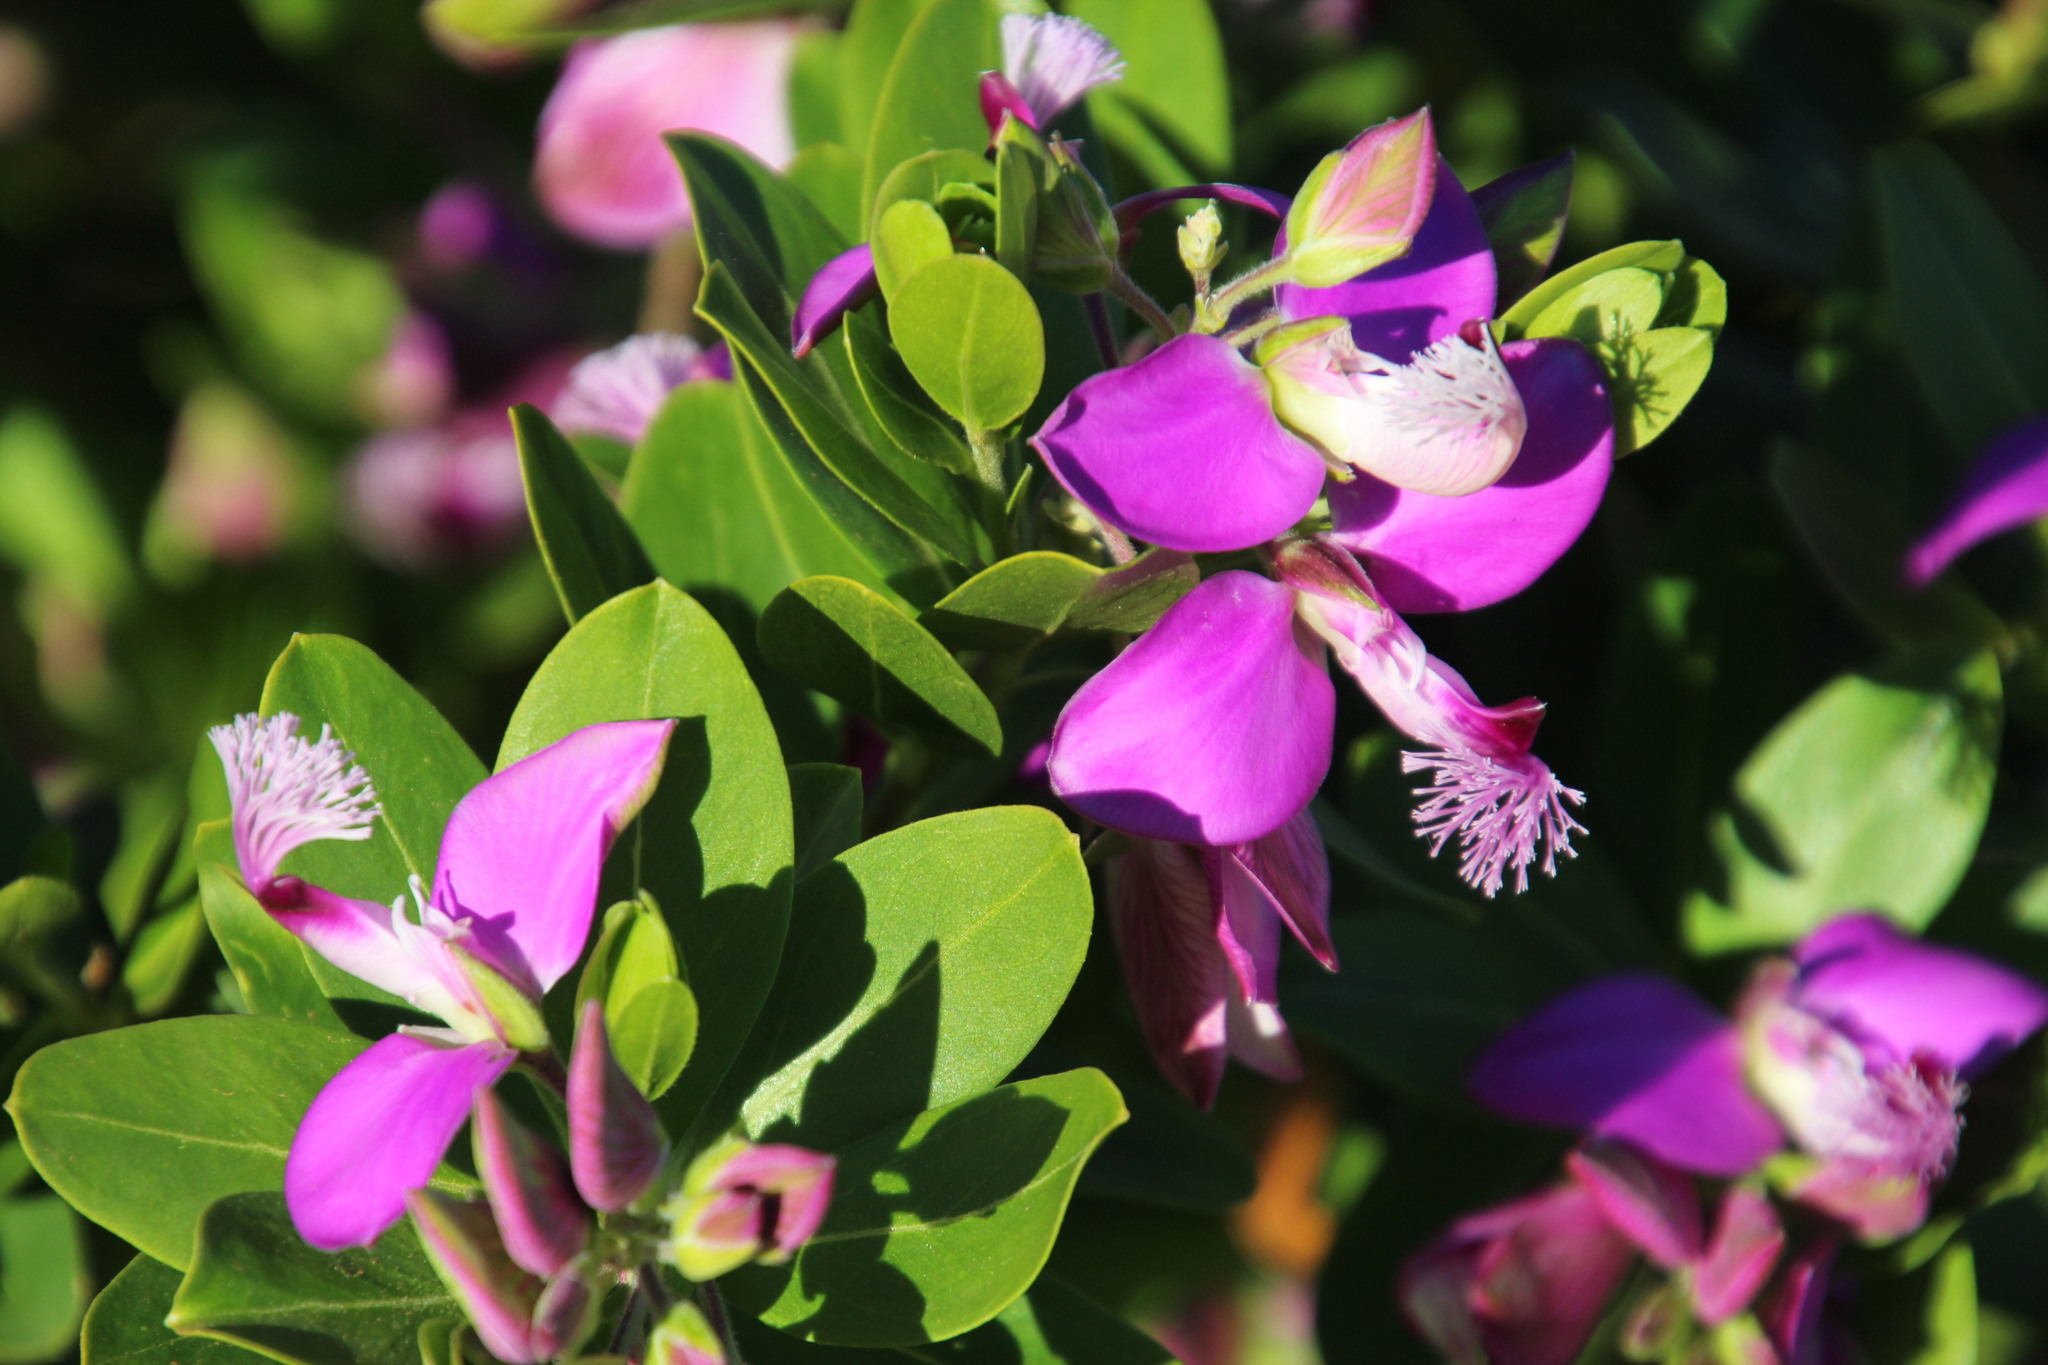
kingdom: Plantae
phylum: Tracheophyta
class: Magnoliopsida
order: Fabales
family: Polygalaceae
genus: Polygala
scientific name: Polygala myrtifolia
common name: Myrtle-leaf milkwort
